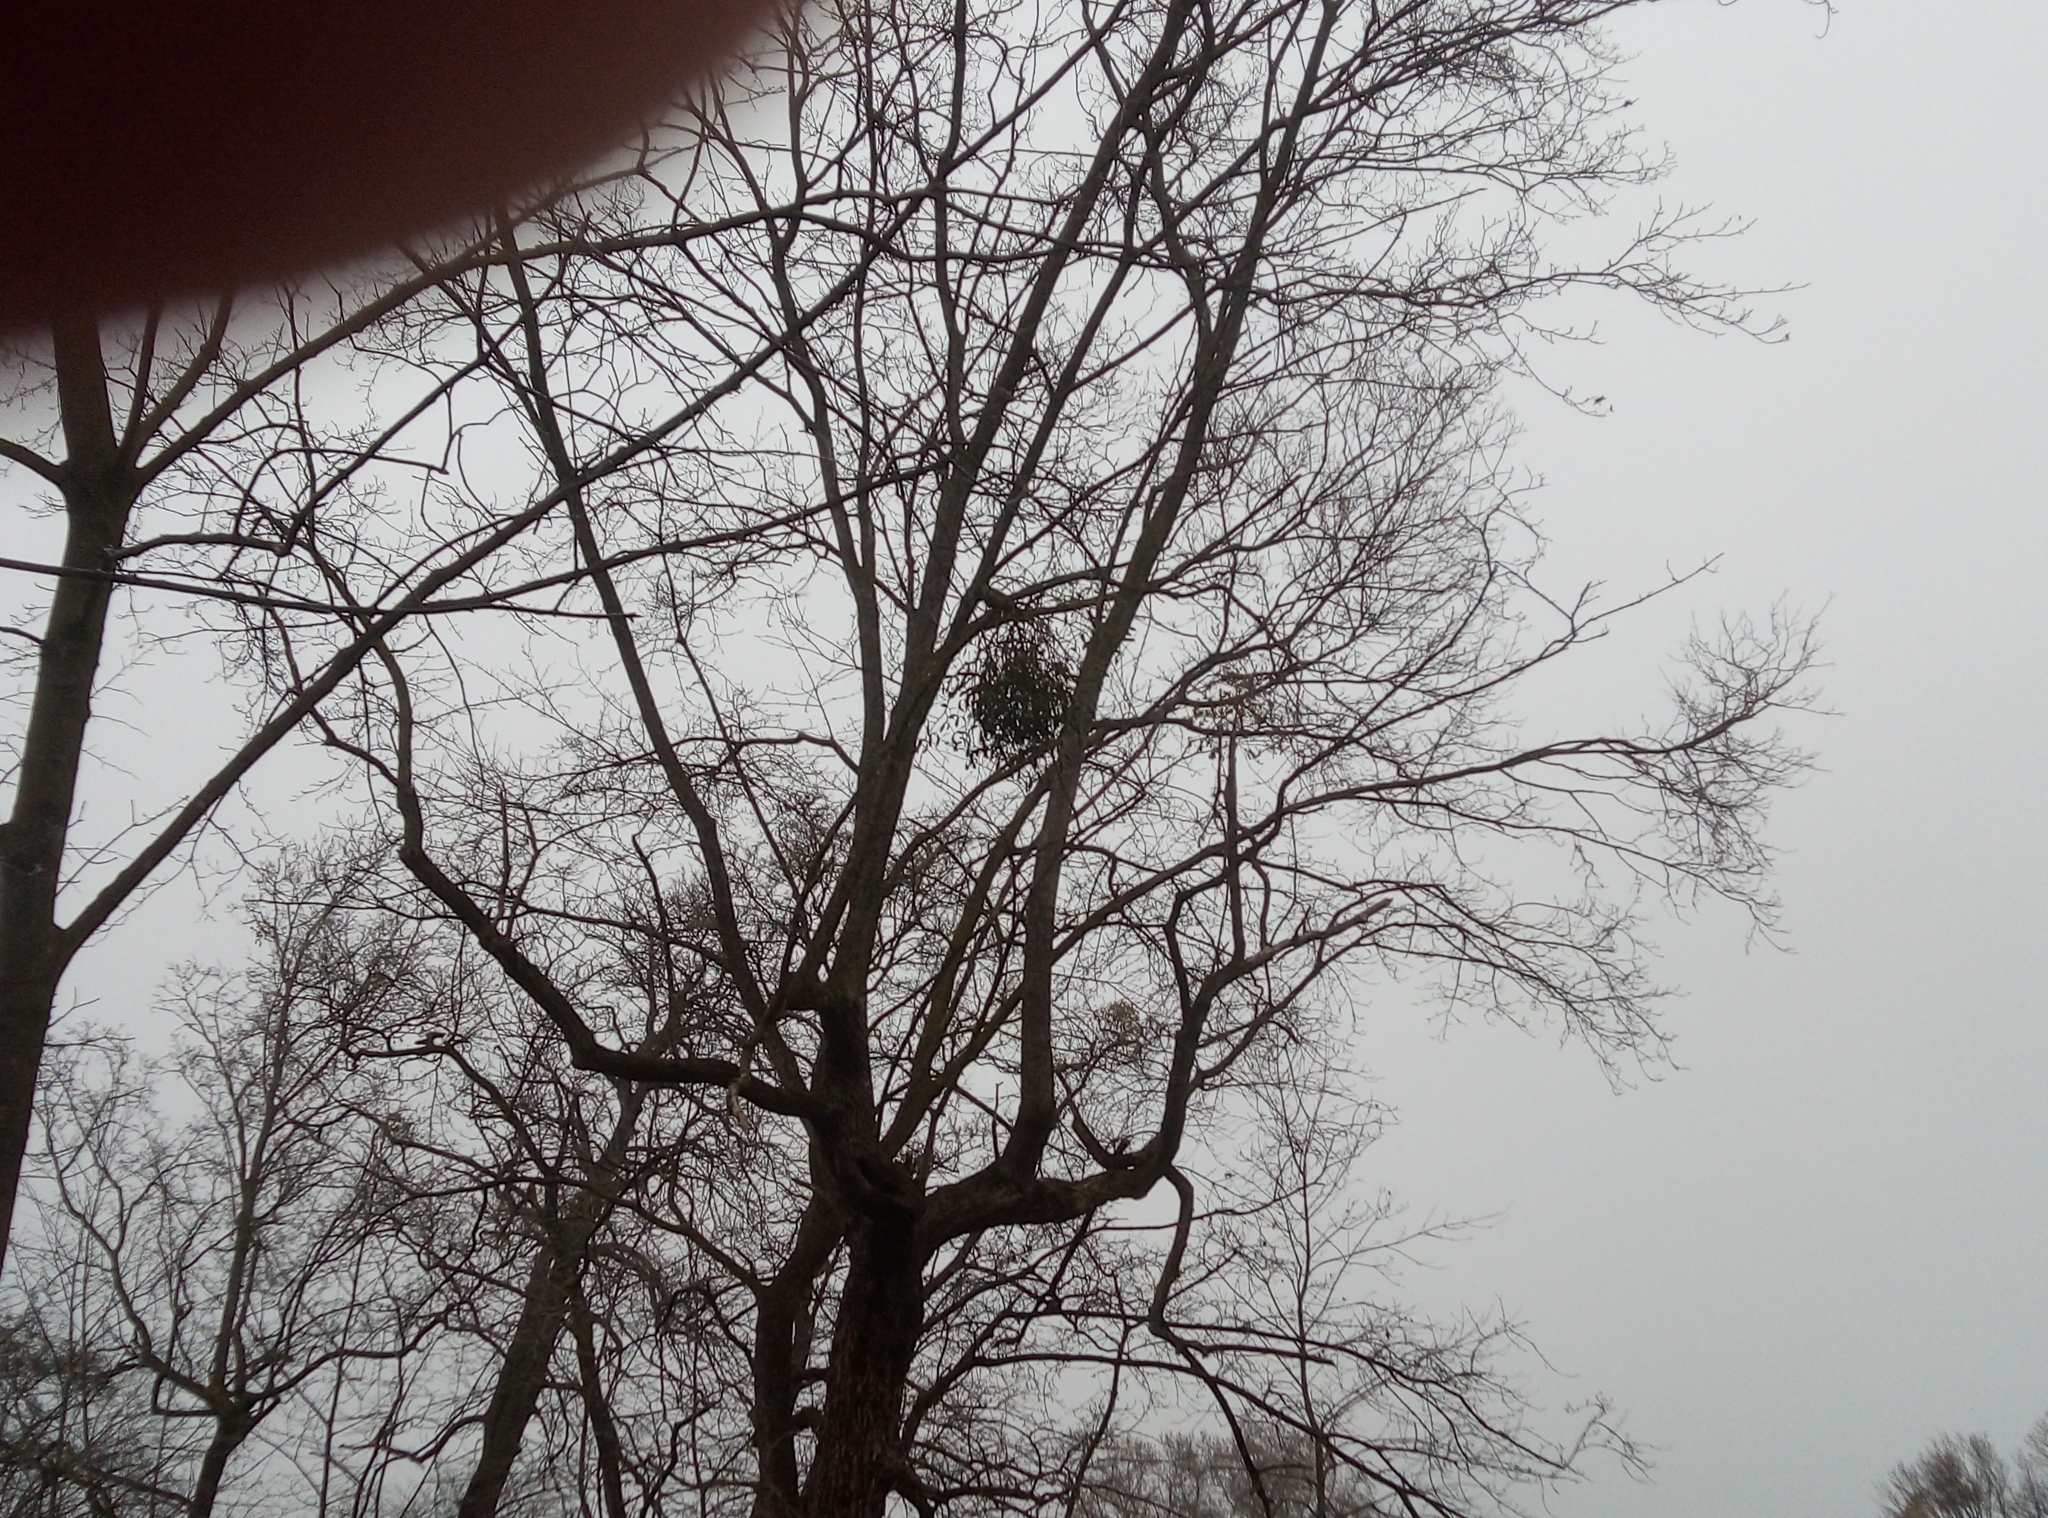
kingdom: Plantae
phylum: Tracheophyta
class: Magnoliopsida
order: Santalales
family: Viscaceae
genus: Viscum
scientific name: Viscum album
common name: Mistletoe
